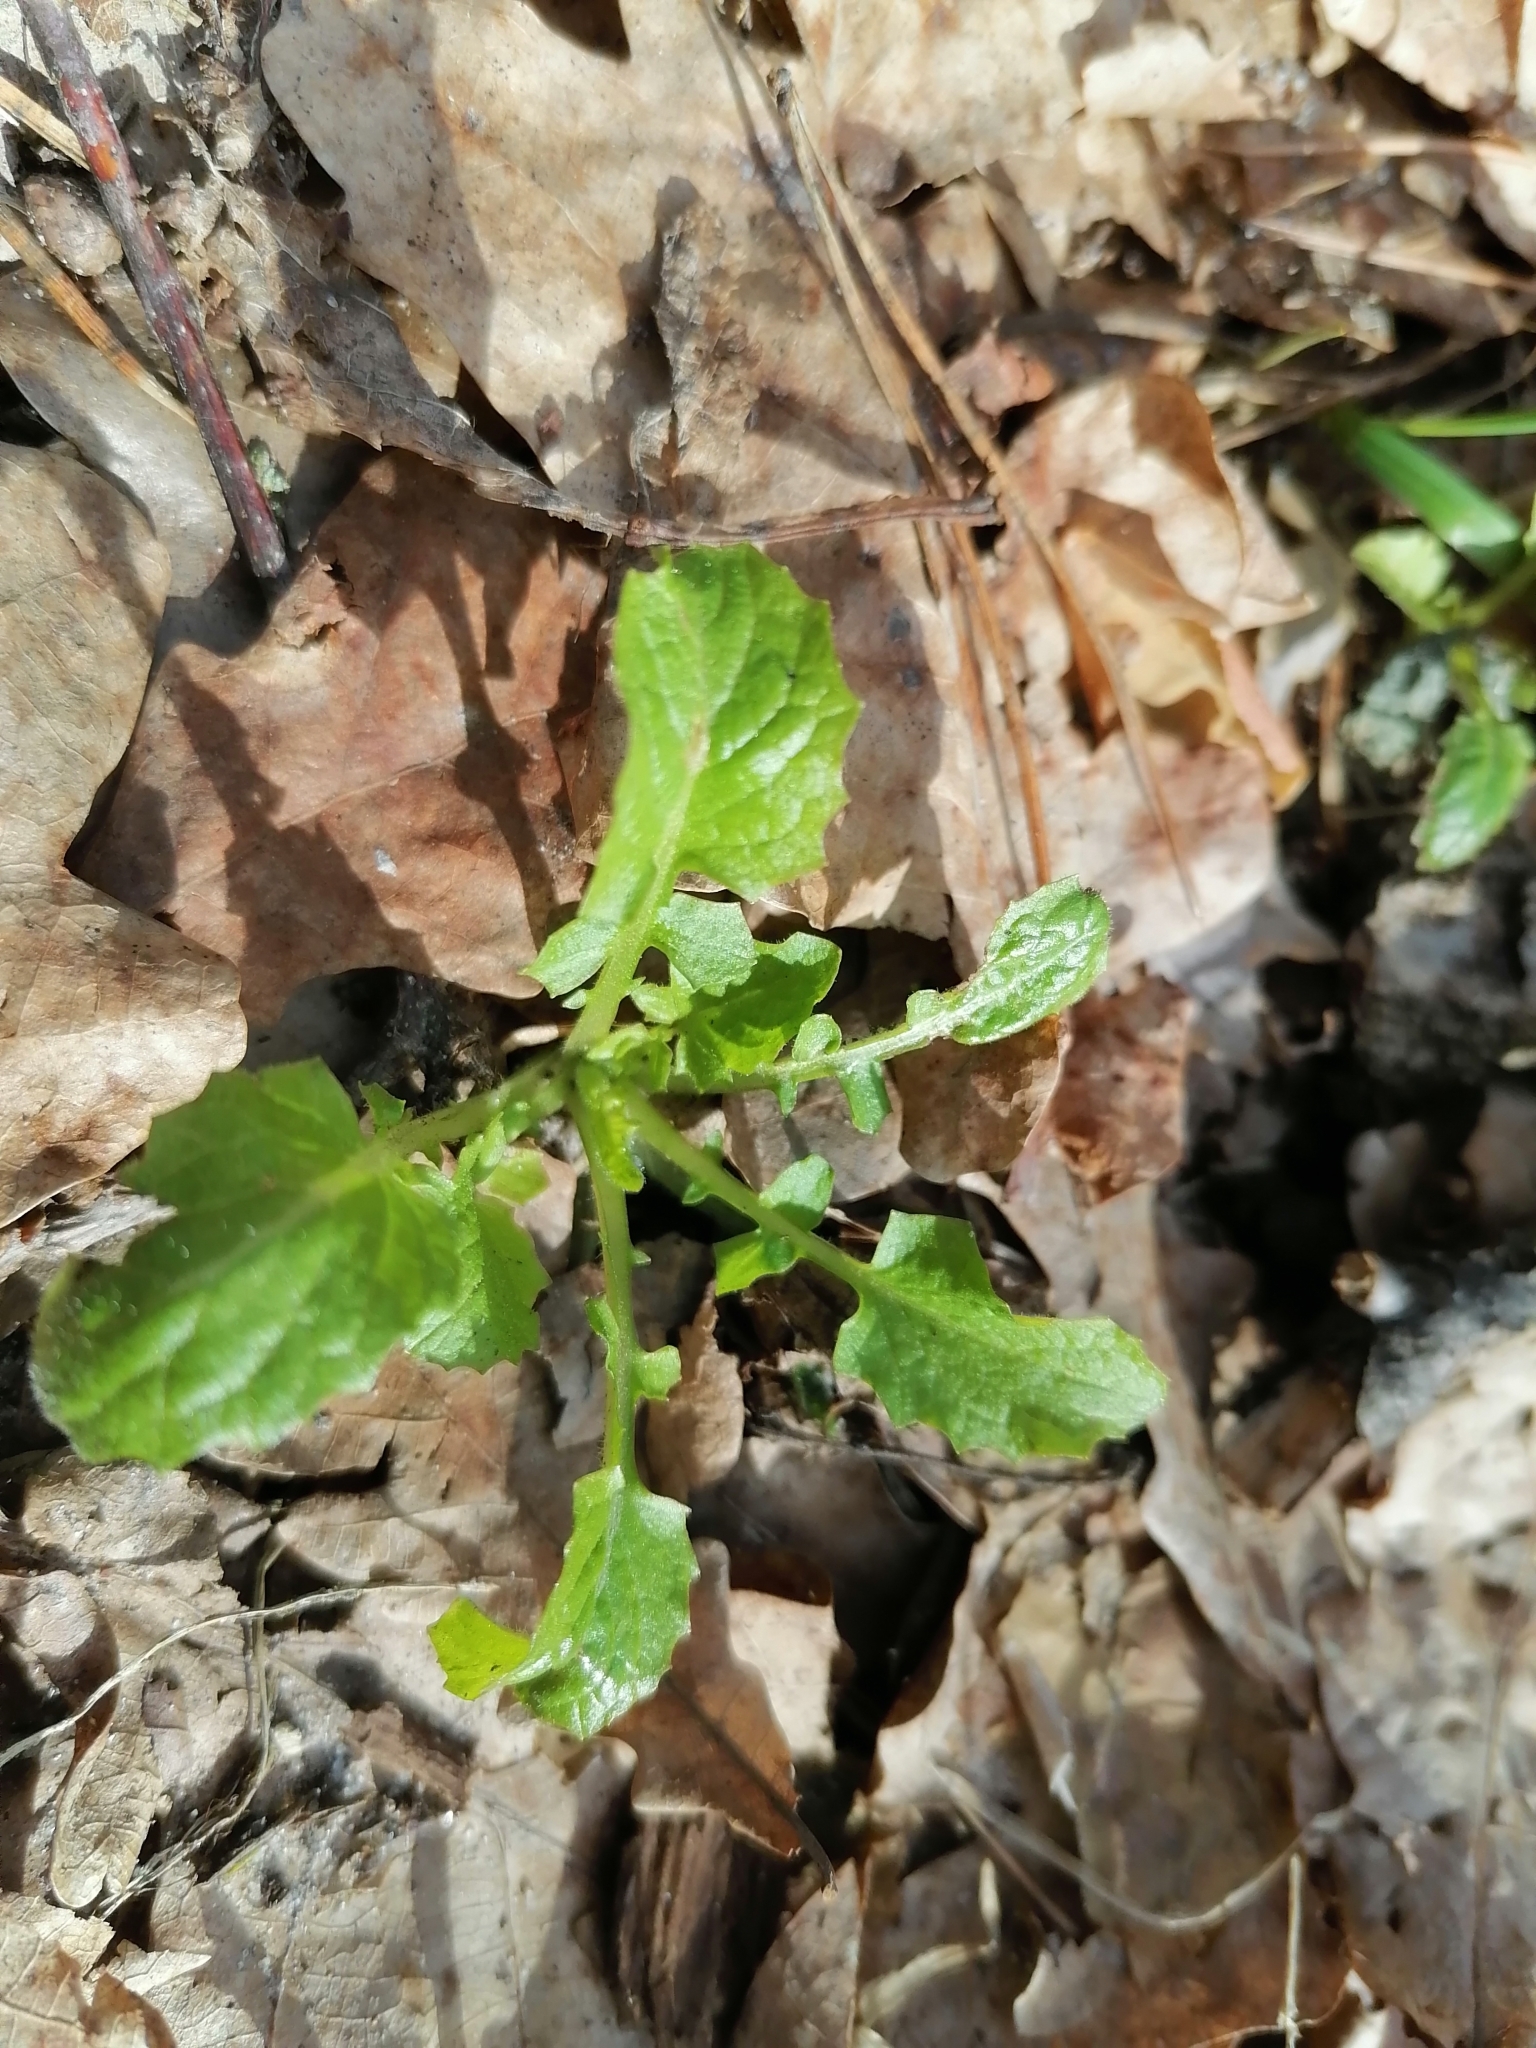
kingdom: Plantae
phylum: Tracheophyta
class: Magnoliopsida
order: Asterales
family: Asteraceae
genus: Lapsana
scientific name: Lapsana communis
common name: Nipplewort
